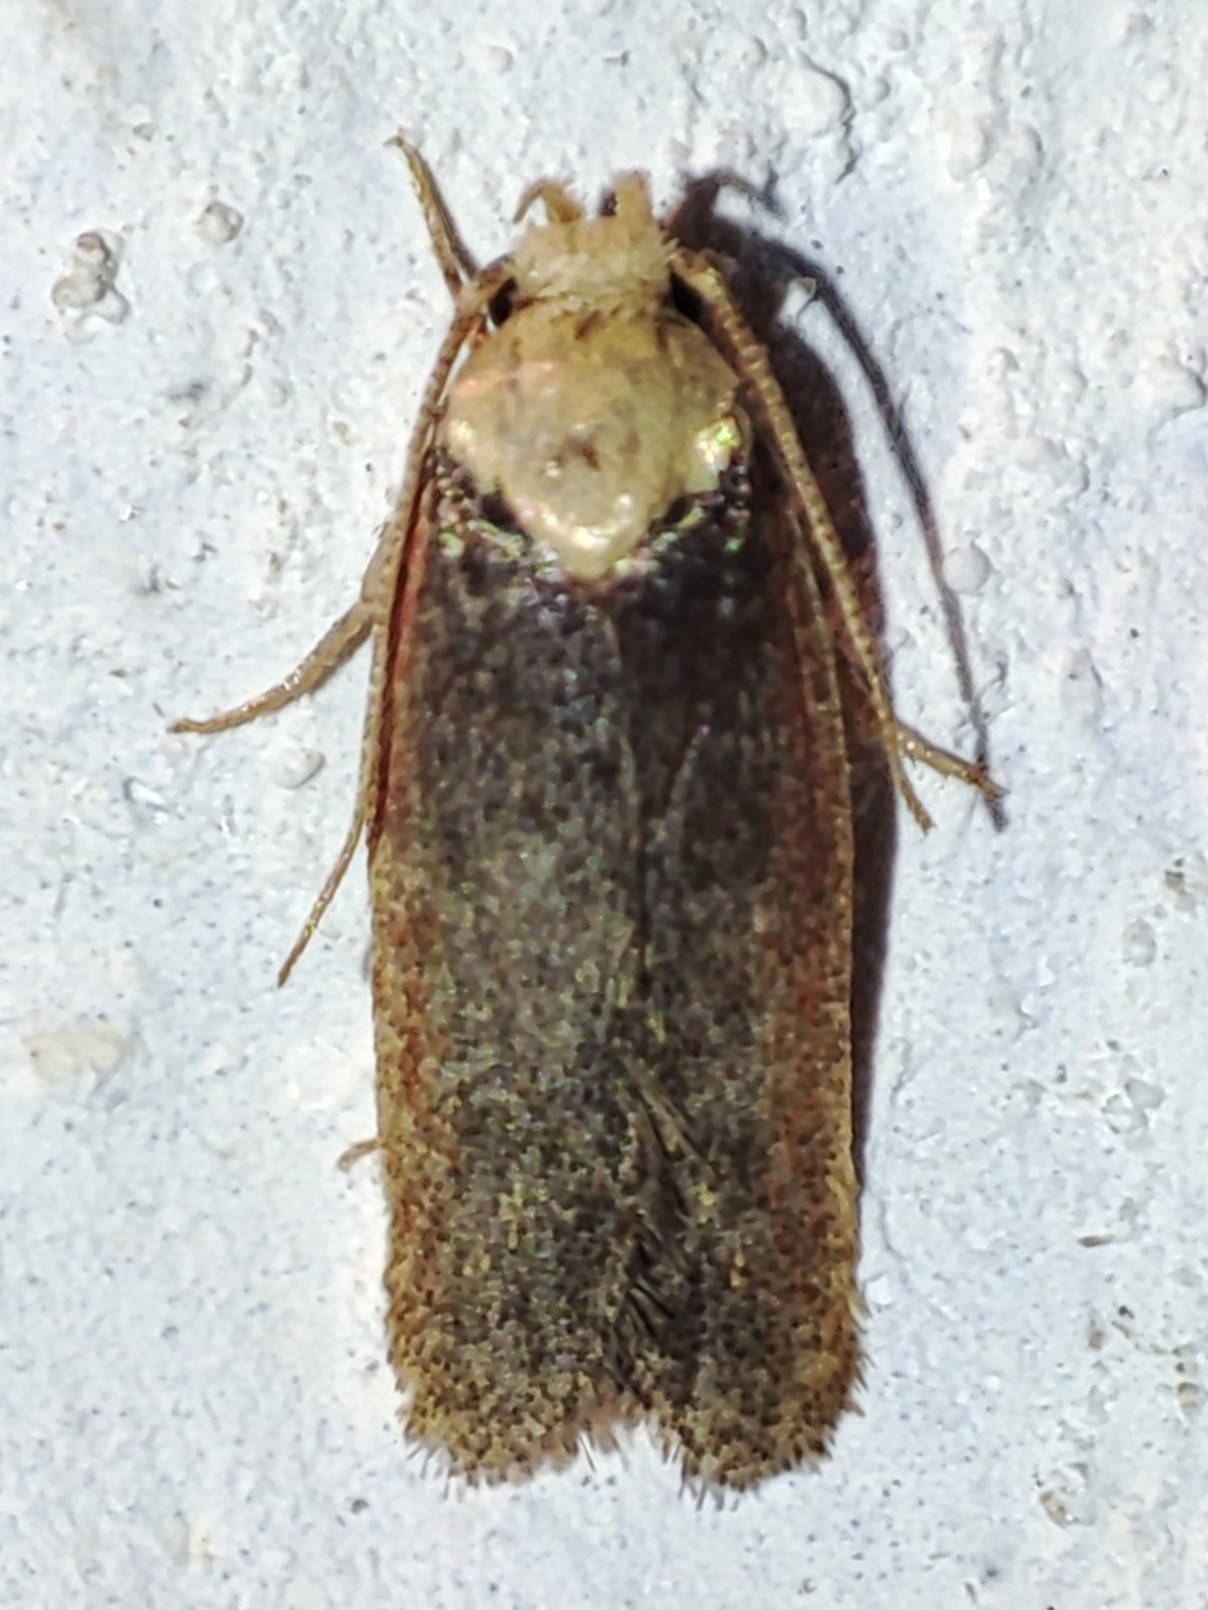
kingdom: Animalia
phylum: Arthropoda
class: Insecta
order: Lepidoptera
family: Depressariidae
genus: Depressaria
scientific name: Depressaria depressana
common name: Lost flat-body
